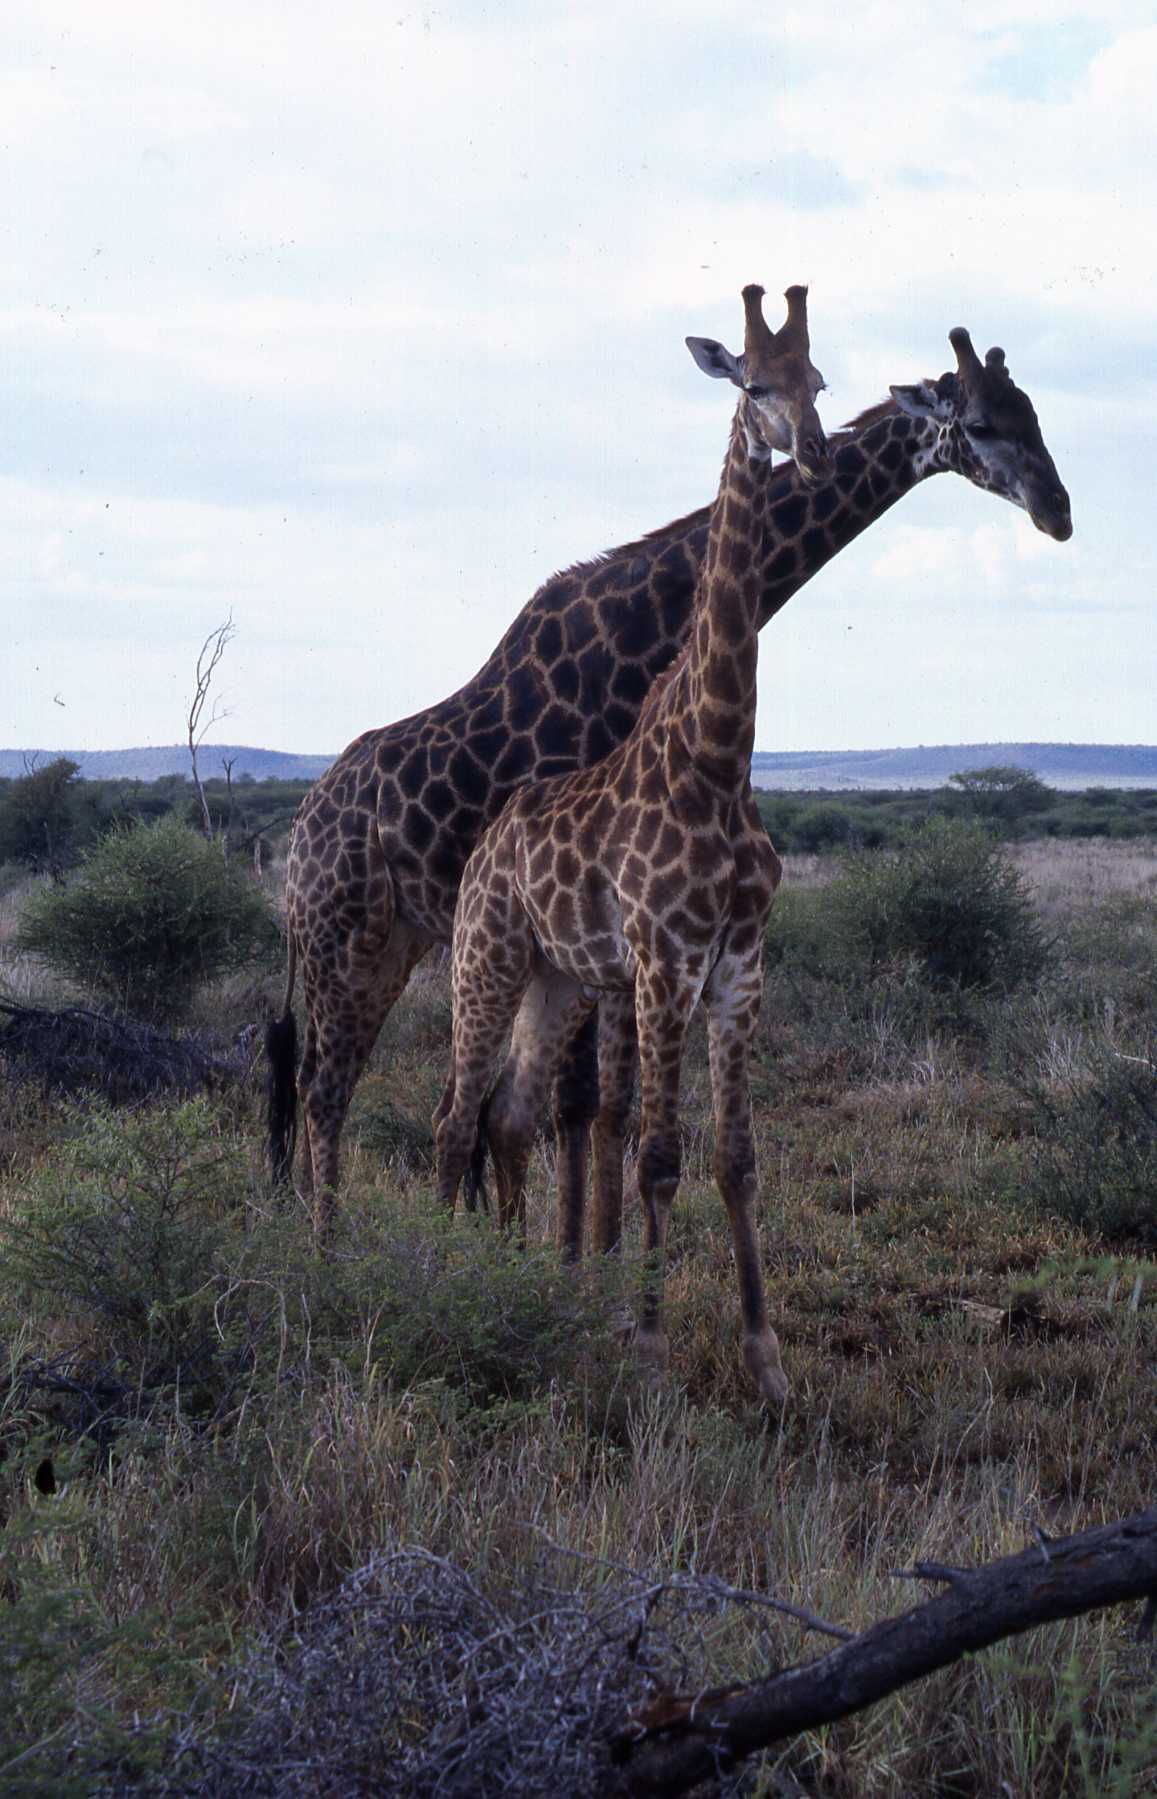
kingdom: Animalia
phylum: Chordata
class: Mammalia
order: Artiodactyla
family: Giraffidae
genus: Giraffa
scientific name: Giraffa giraffa
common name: Southern giraffe
